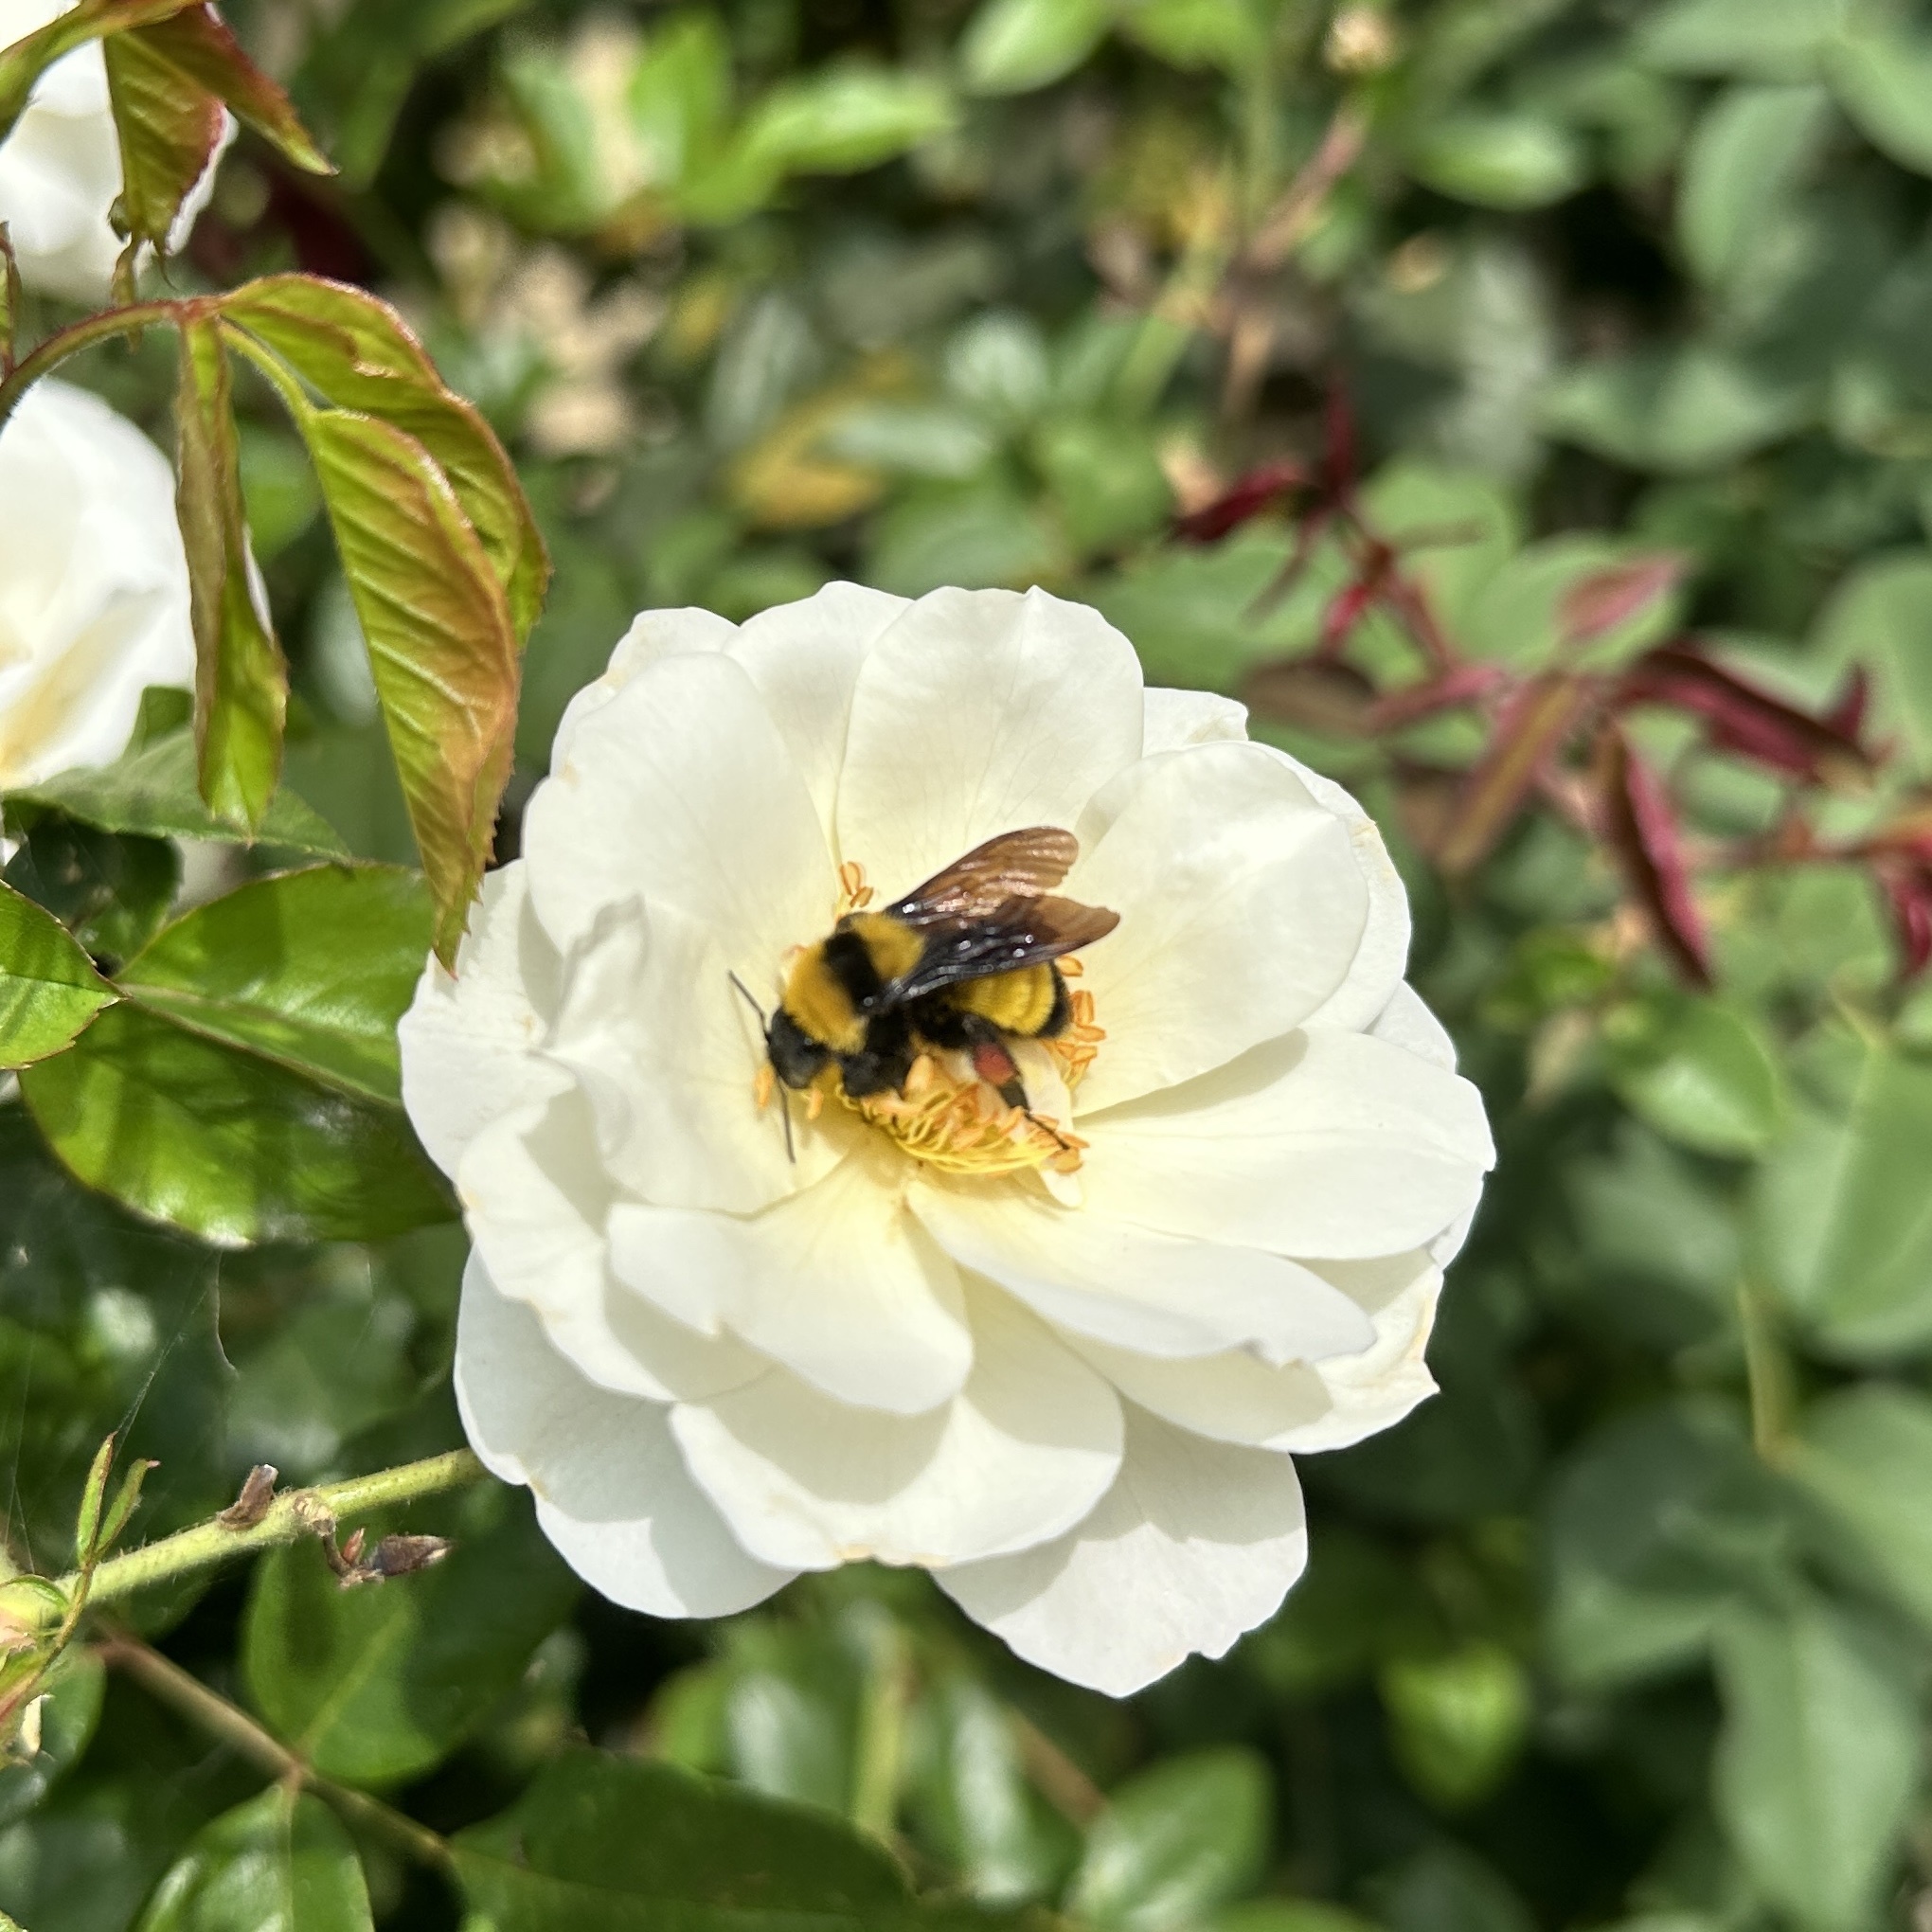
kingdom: Animalia
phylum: Arthropoda
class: Insecta
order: Hymenoptera
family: Apidae
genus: Bombus
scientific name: Bombus sonorus
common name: Sonoran bumble bee
